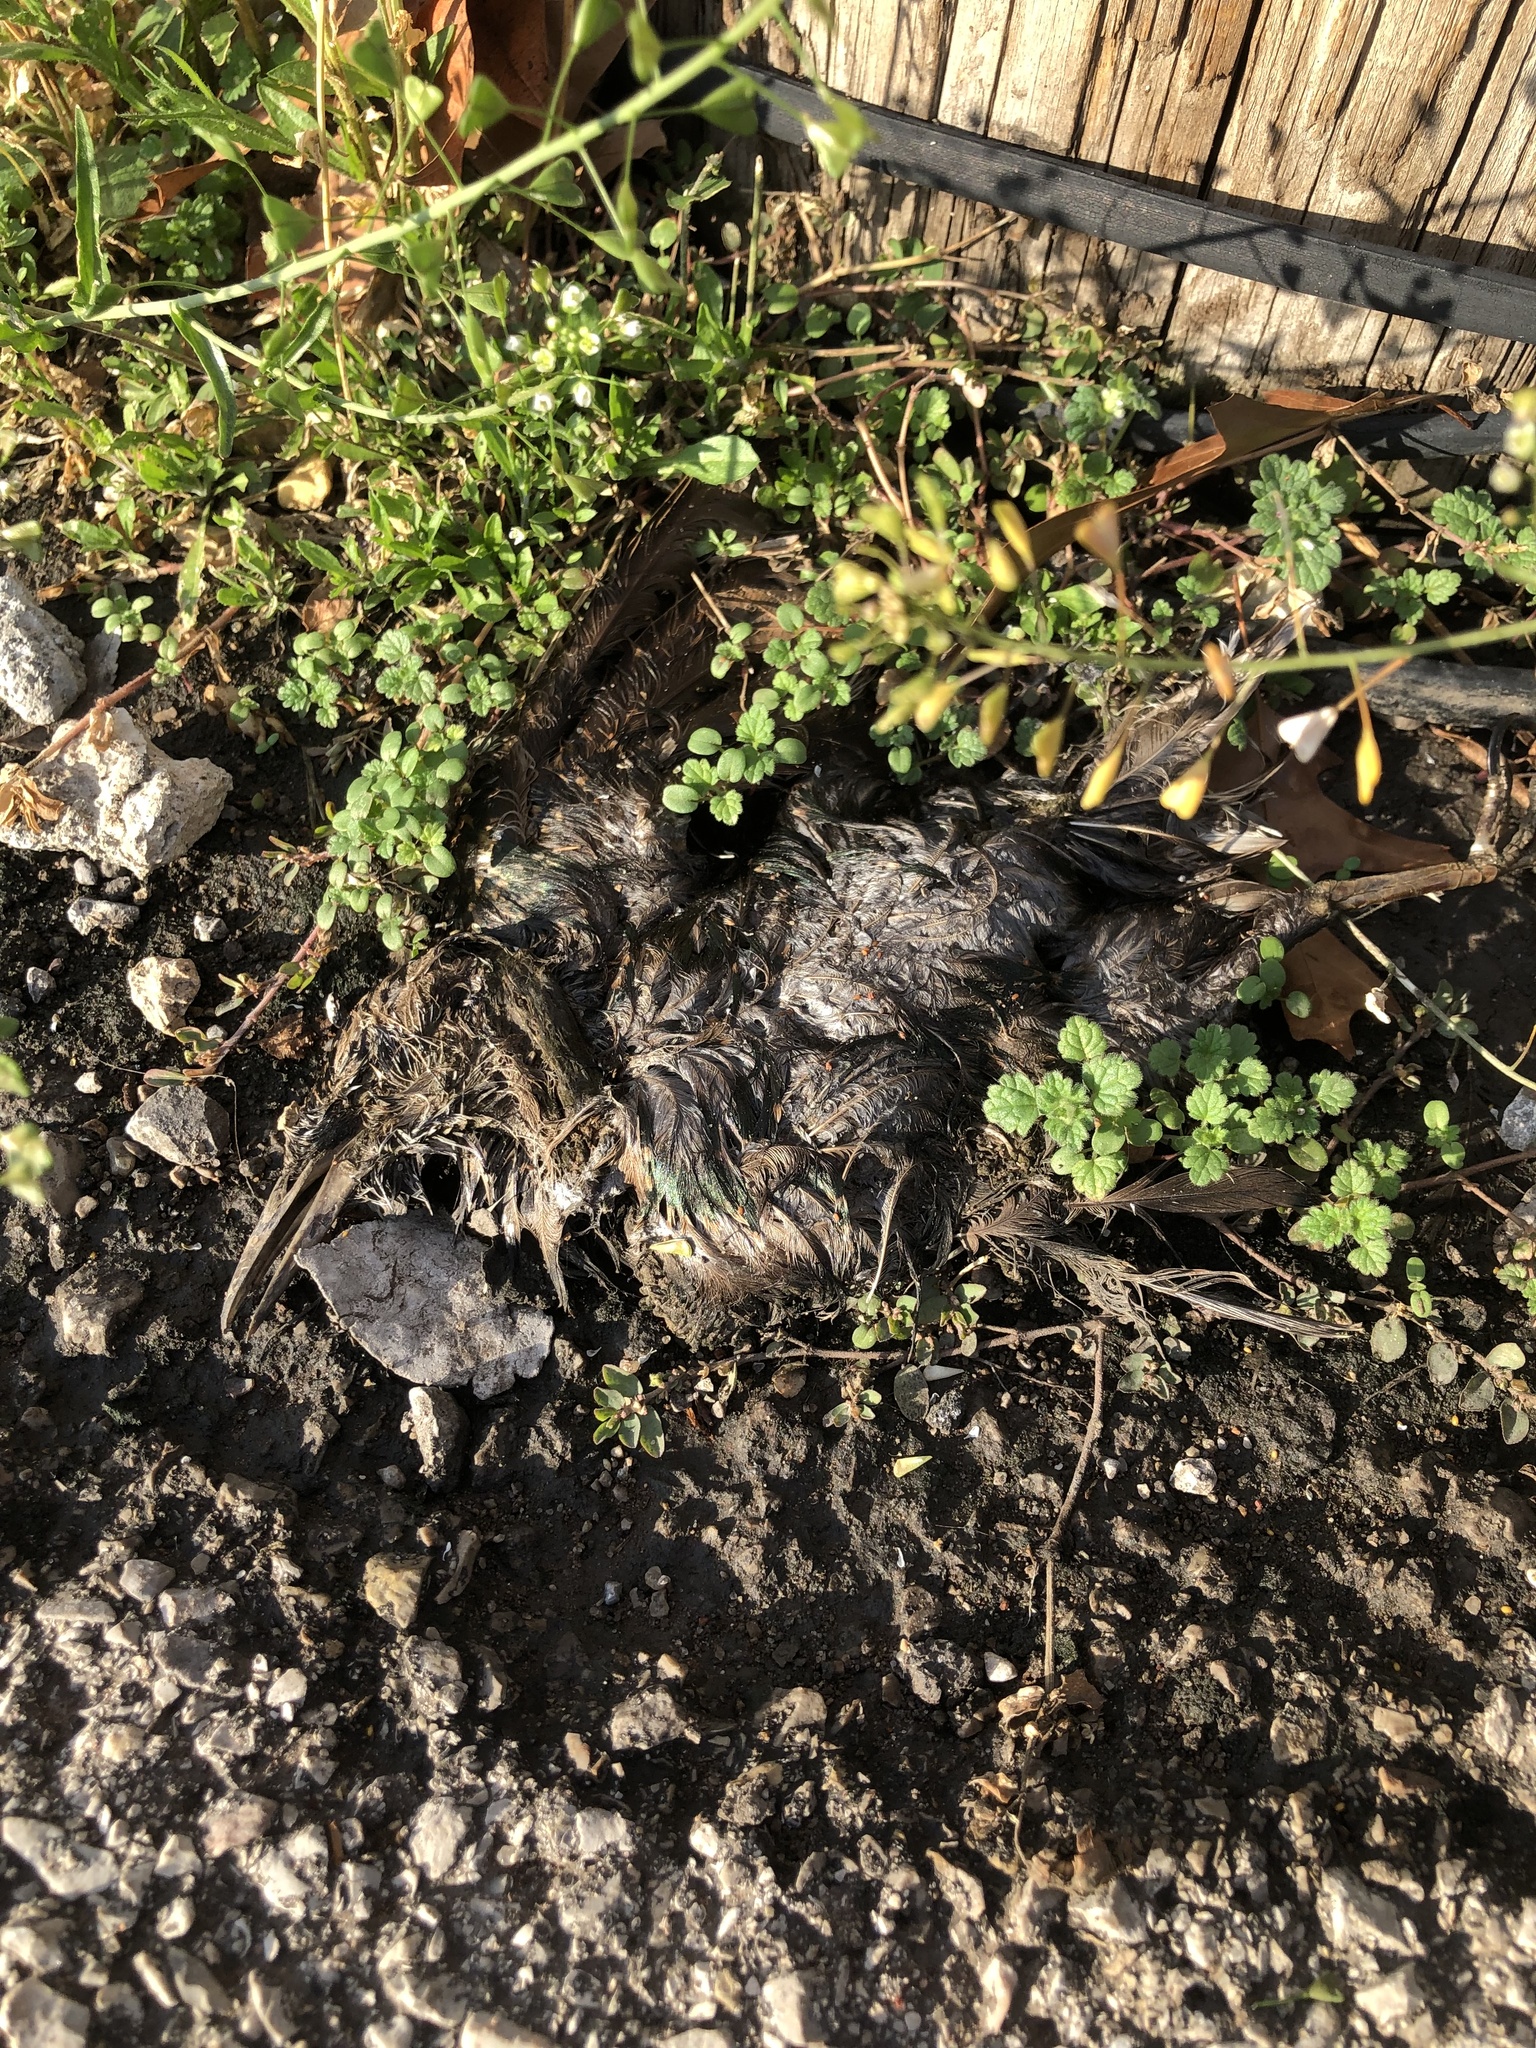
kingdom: Animalia
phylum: Chordata
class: Aves
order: Passeriformes
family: Sturnidae
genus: Sturnus
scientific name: Sturnus vulgaris
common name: Common starling
